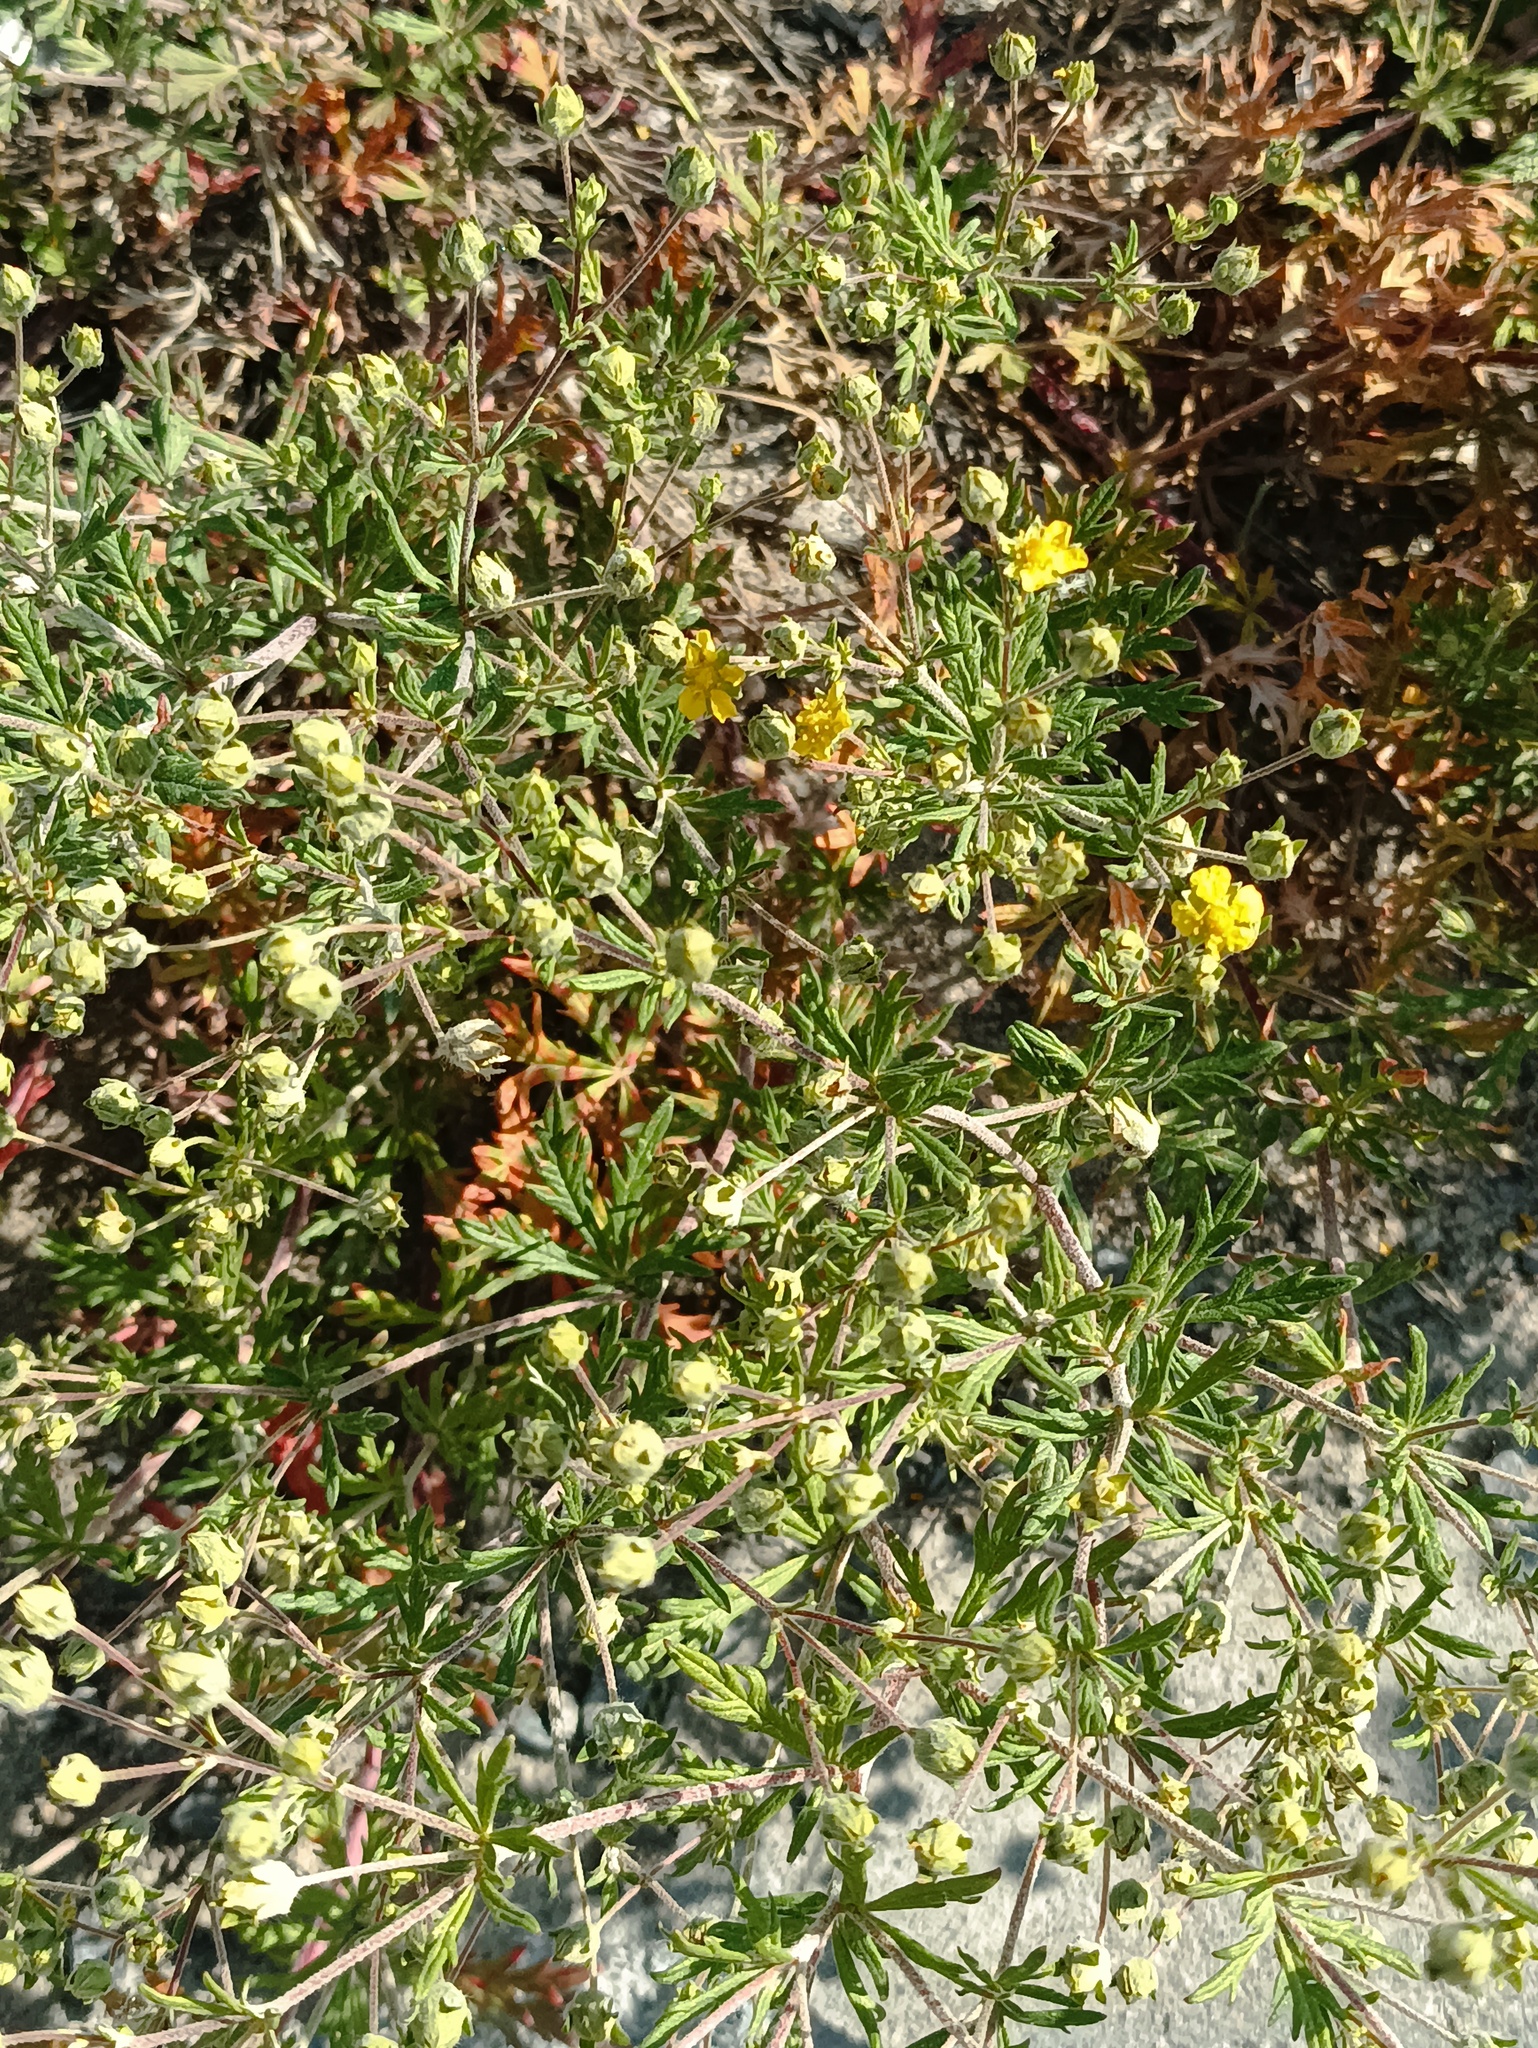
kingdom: Plantae
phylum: Tracheophyta
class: Magnoliopsida
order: Rosales
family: Rosaceae
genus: Potentilla
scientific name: Potentilla argentea
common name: Hoary cinquefoil
